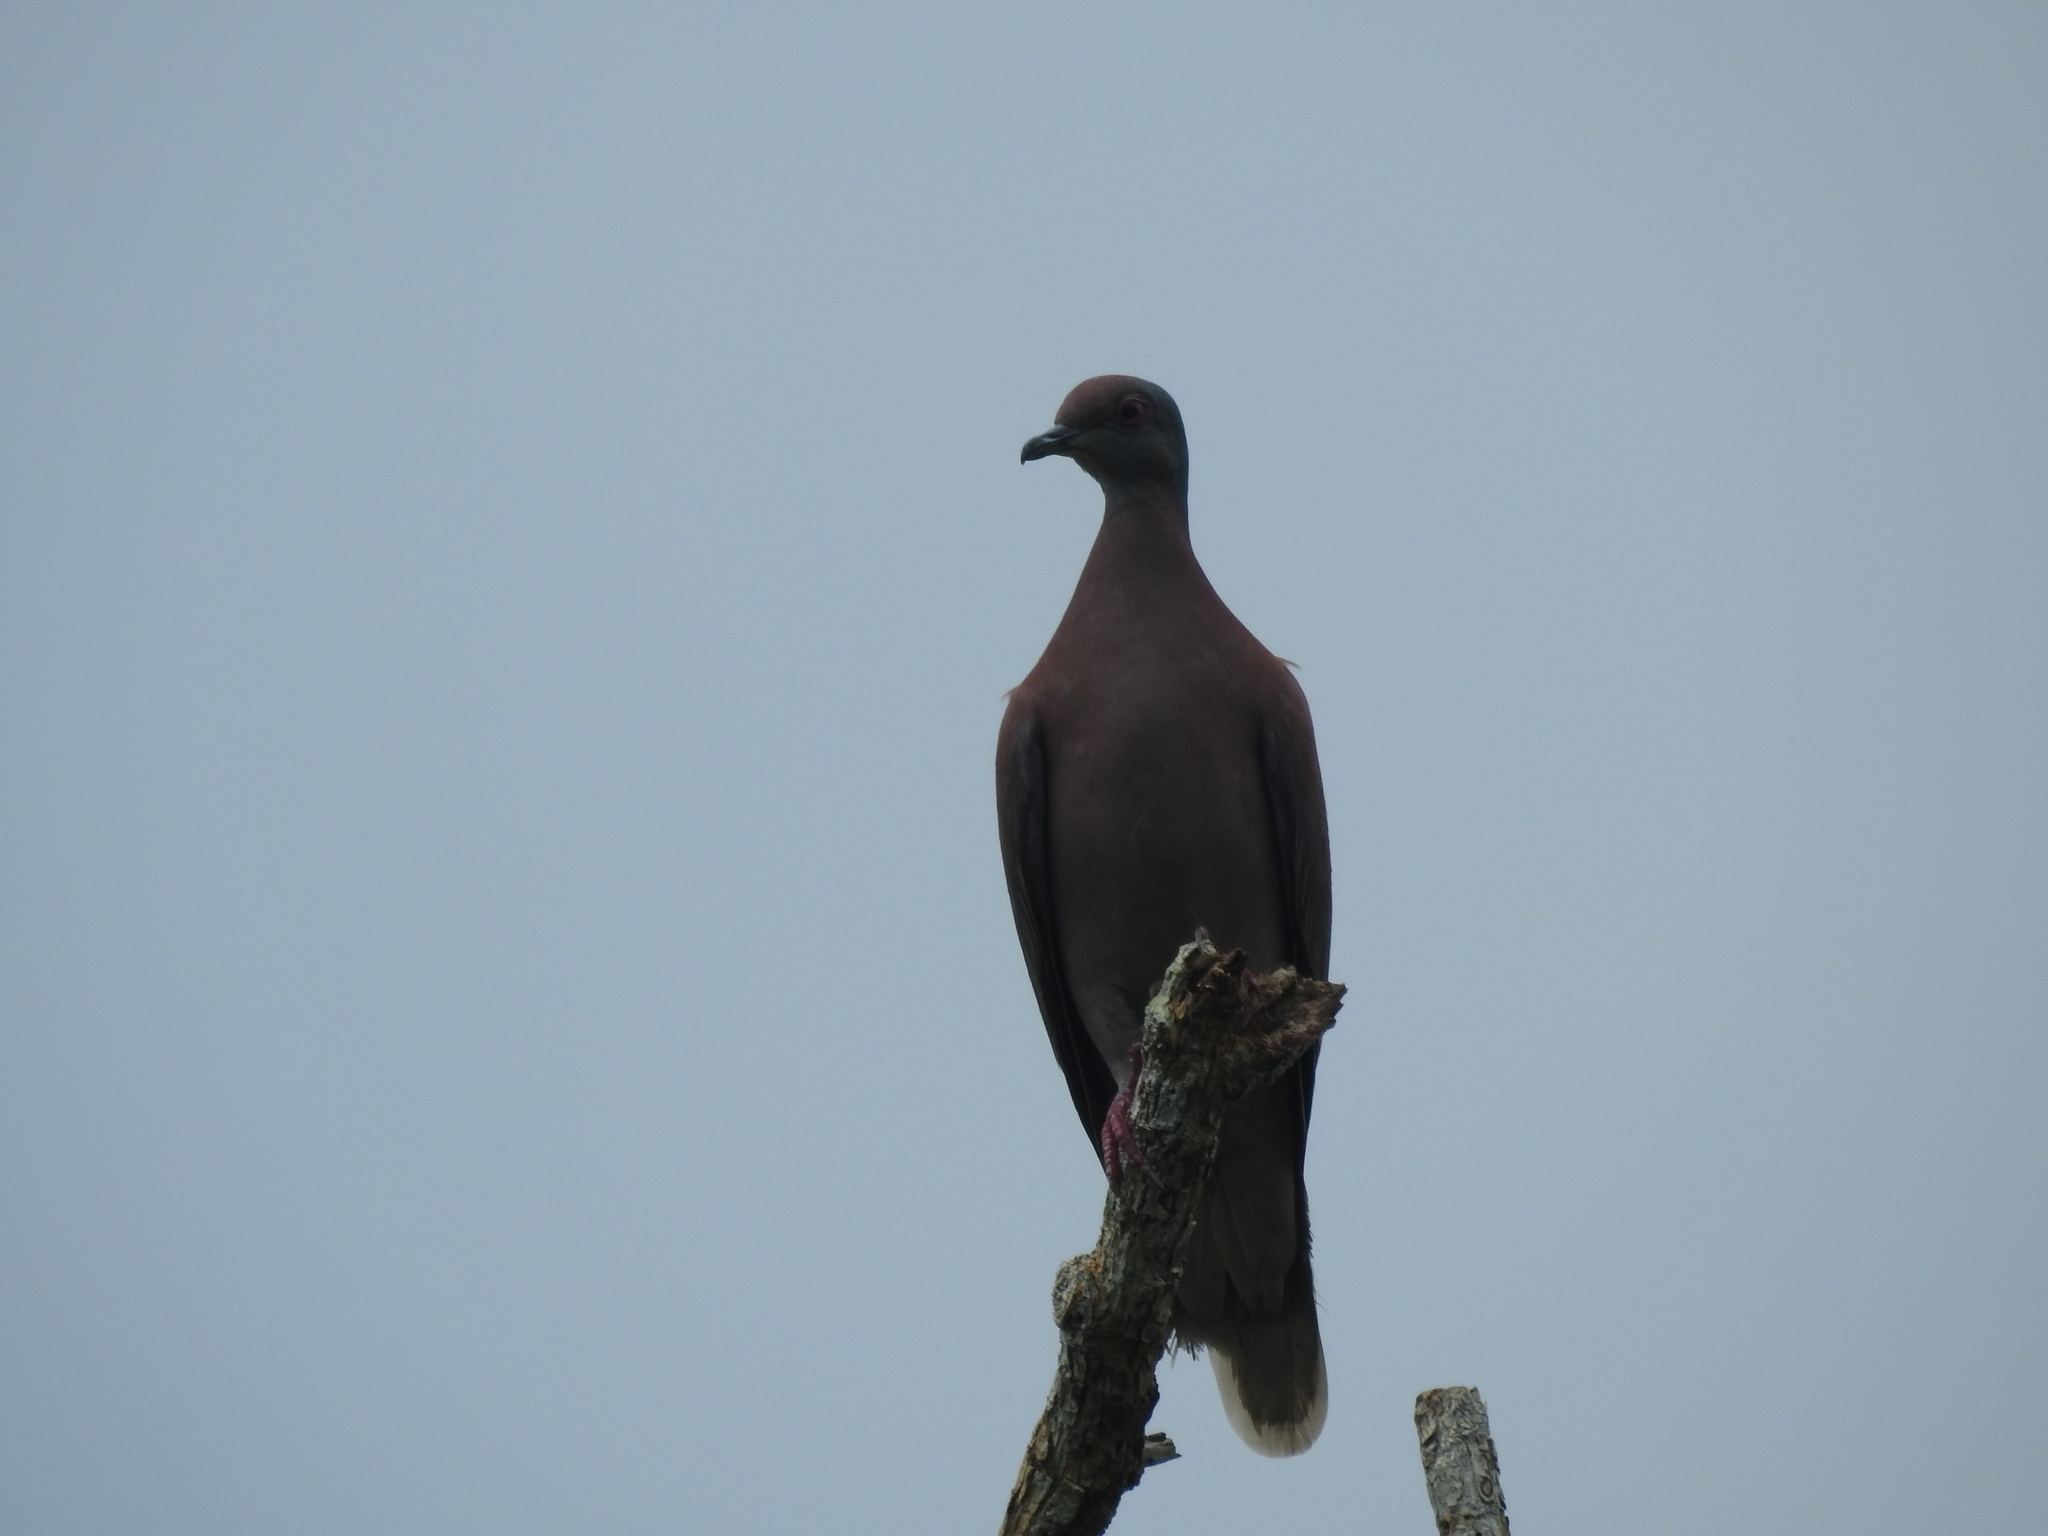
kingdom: Animalia
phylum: Chordata
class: Aves
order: Columbiformes
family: Columbidae
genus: Patagioenas
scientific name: Patagioenas cayennensis
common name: Pale-vented pigeon
